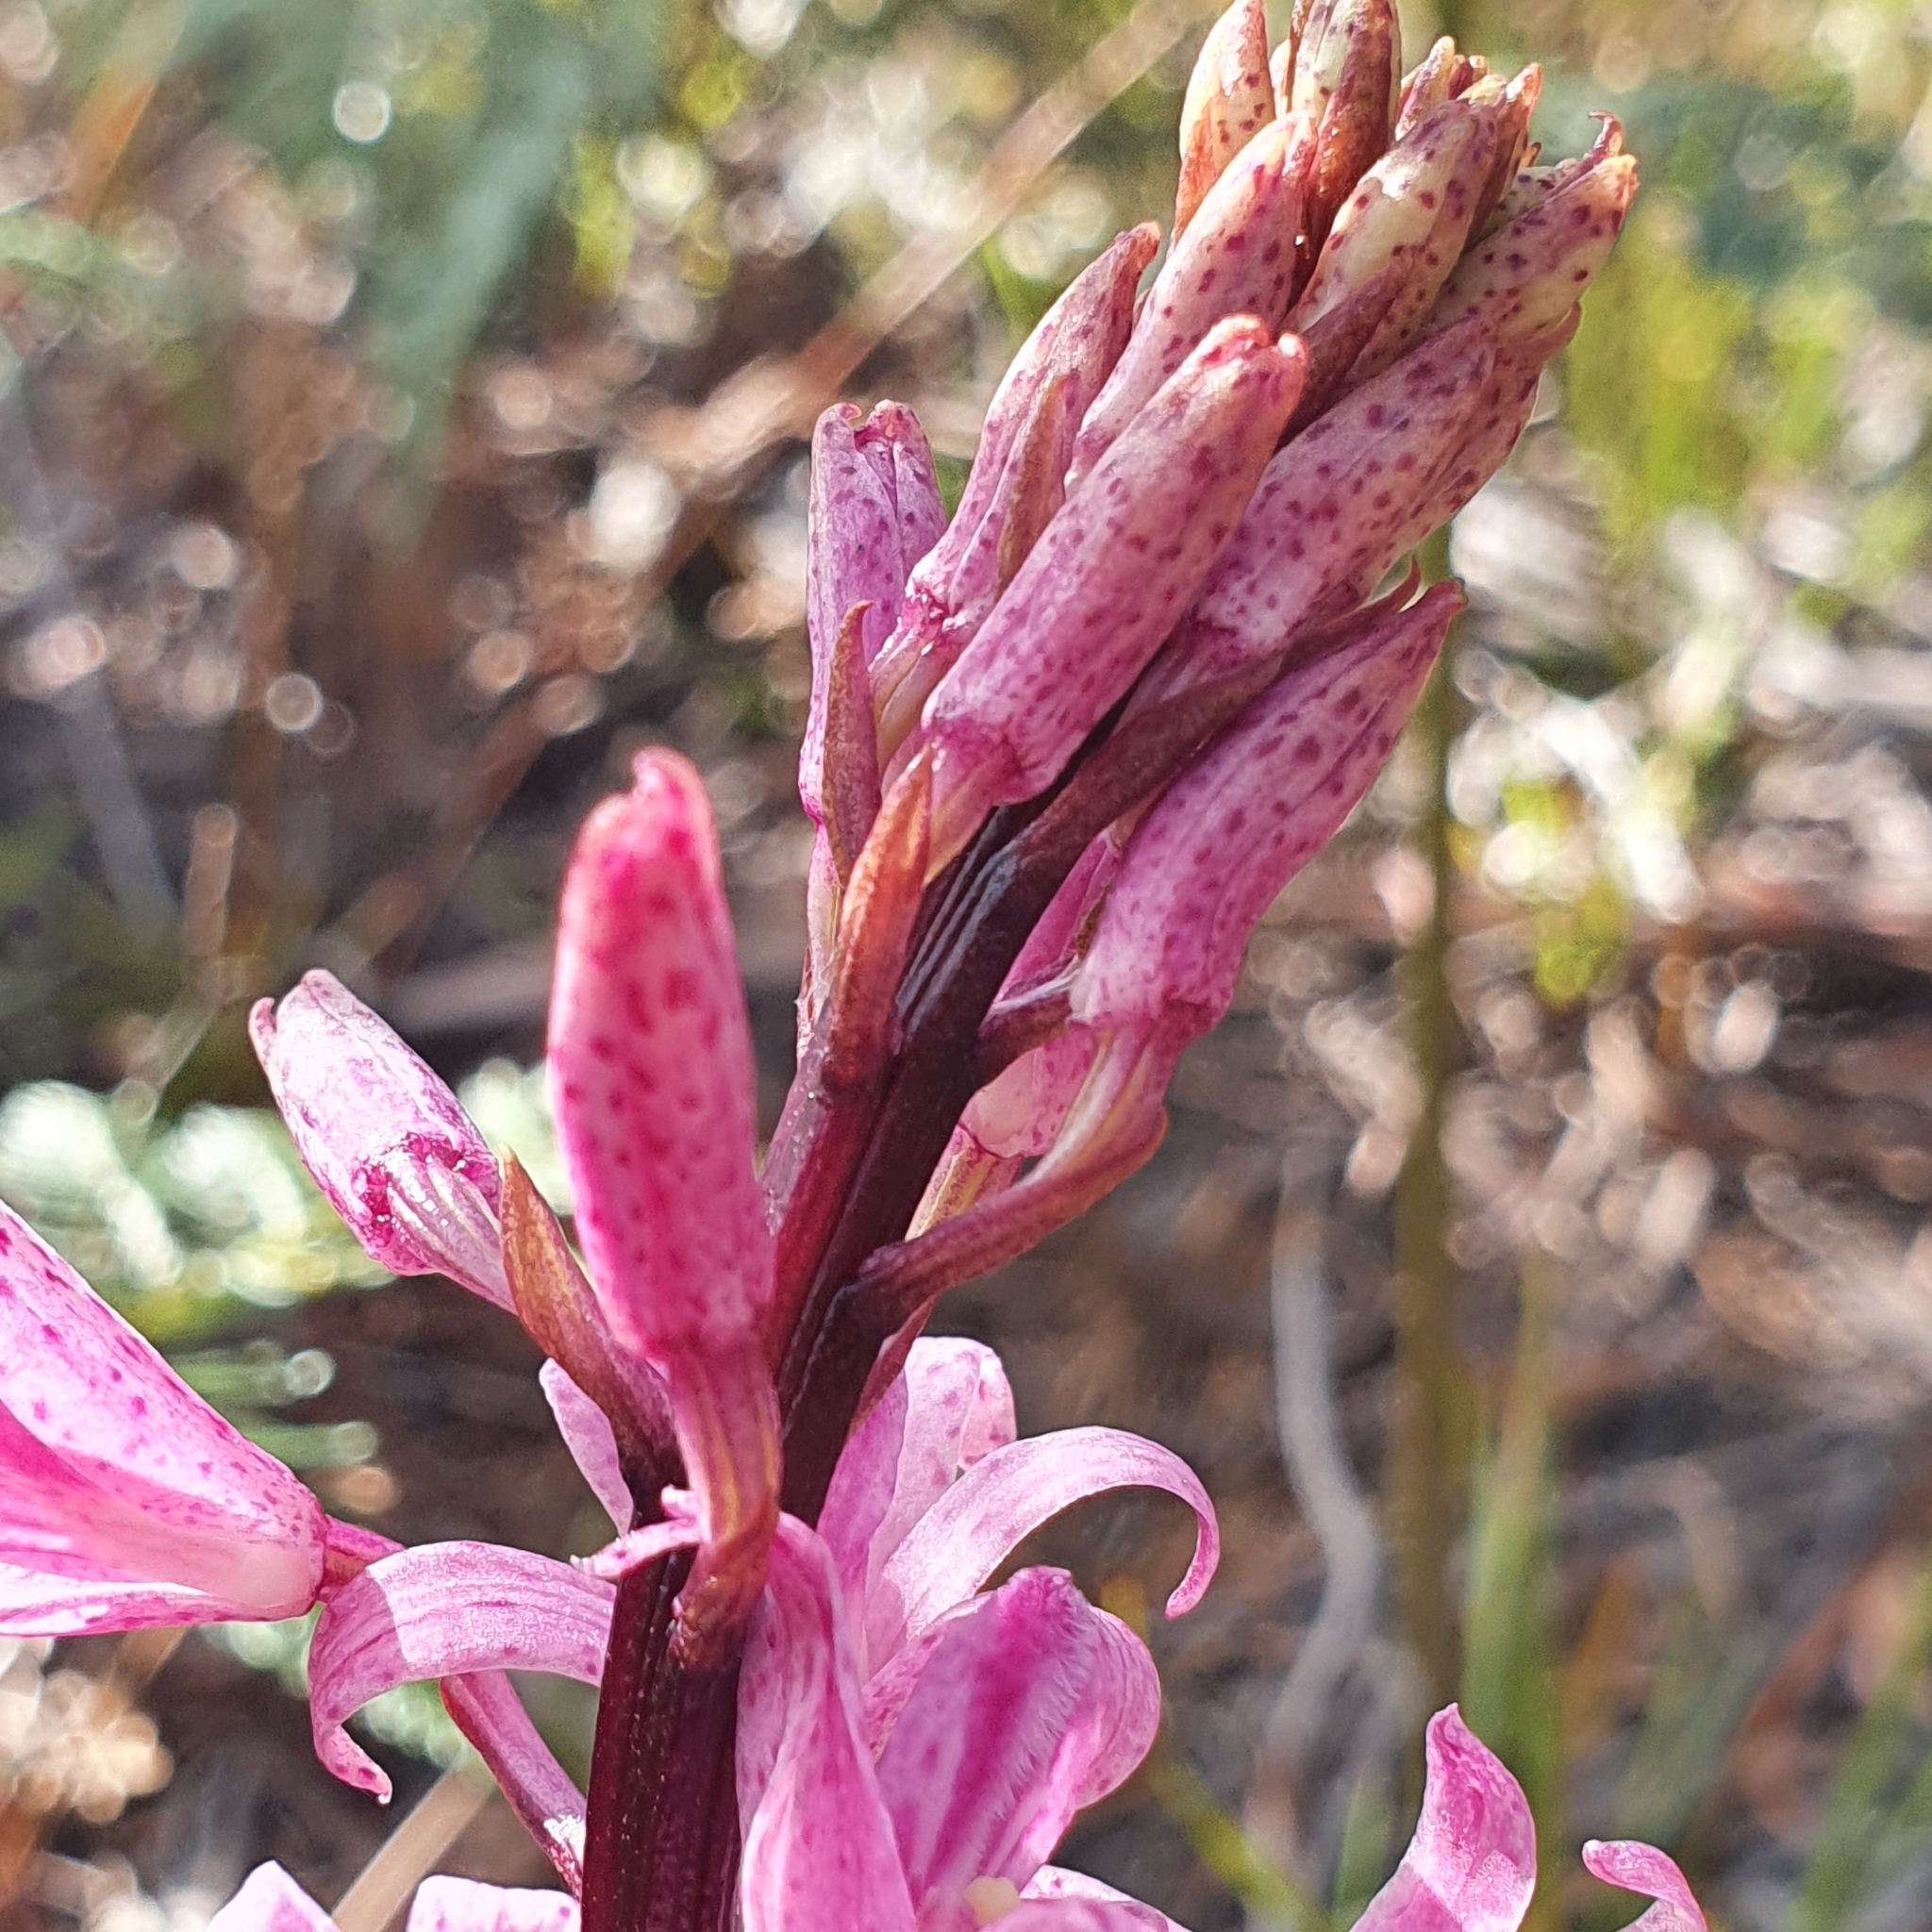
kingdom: Plantae
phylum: Tracheophyta
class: Liliopsida
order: Asparagales
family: Orchidaceae
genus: Dipodium
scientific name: Dipodium roseum
